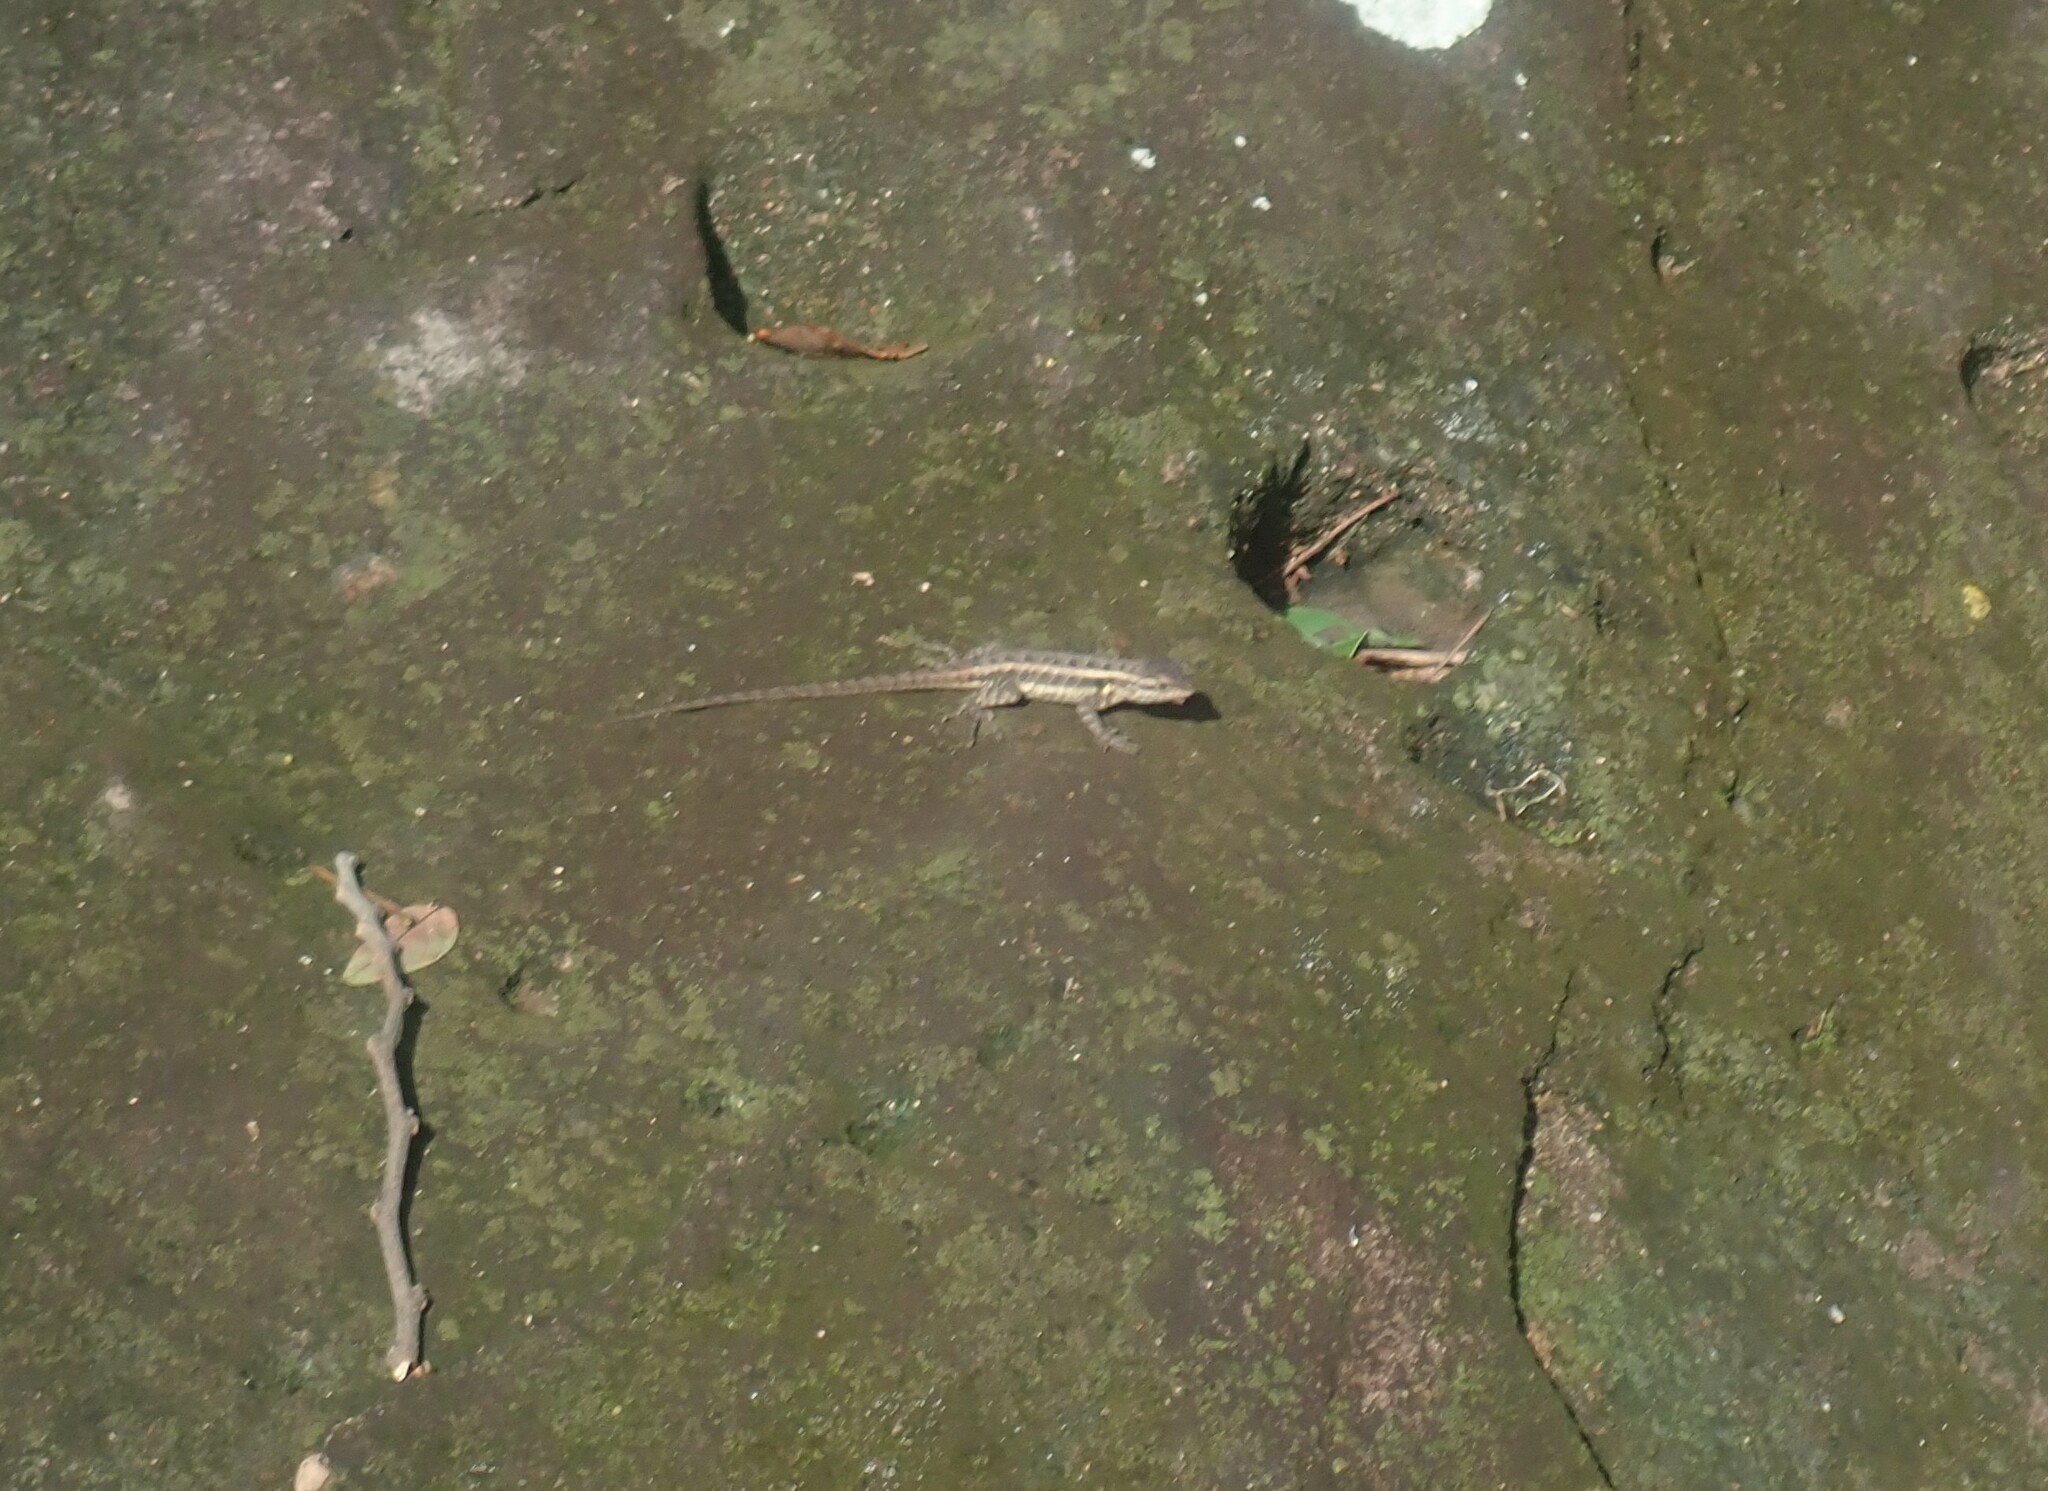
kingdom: Animalia
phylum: Chordata
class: Squamata
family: Phrynosomatidae
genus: Sceloporus
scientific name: Sceloporus variabilis
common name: Rosebelly lizard
